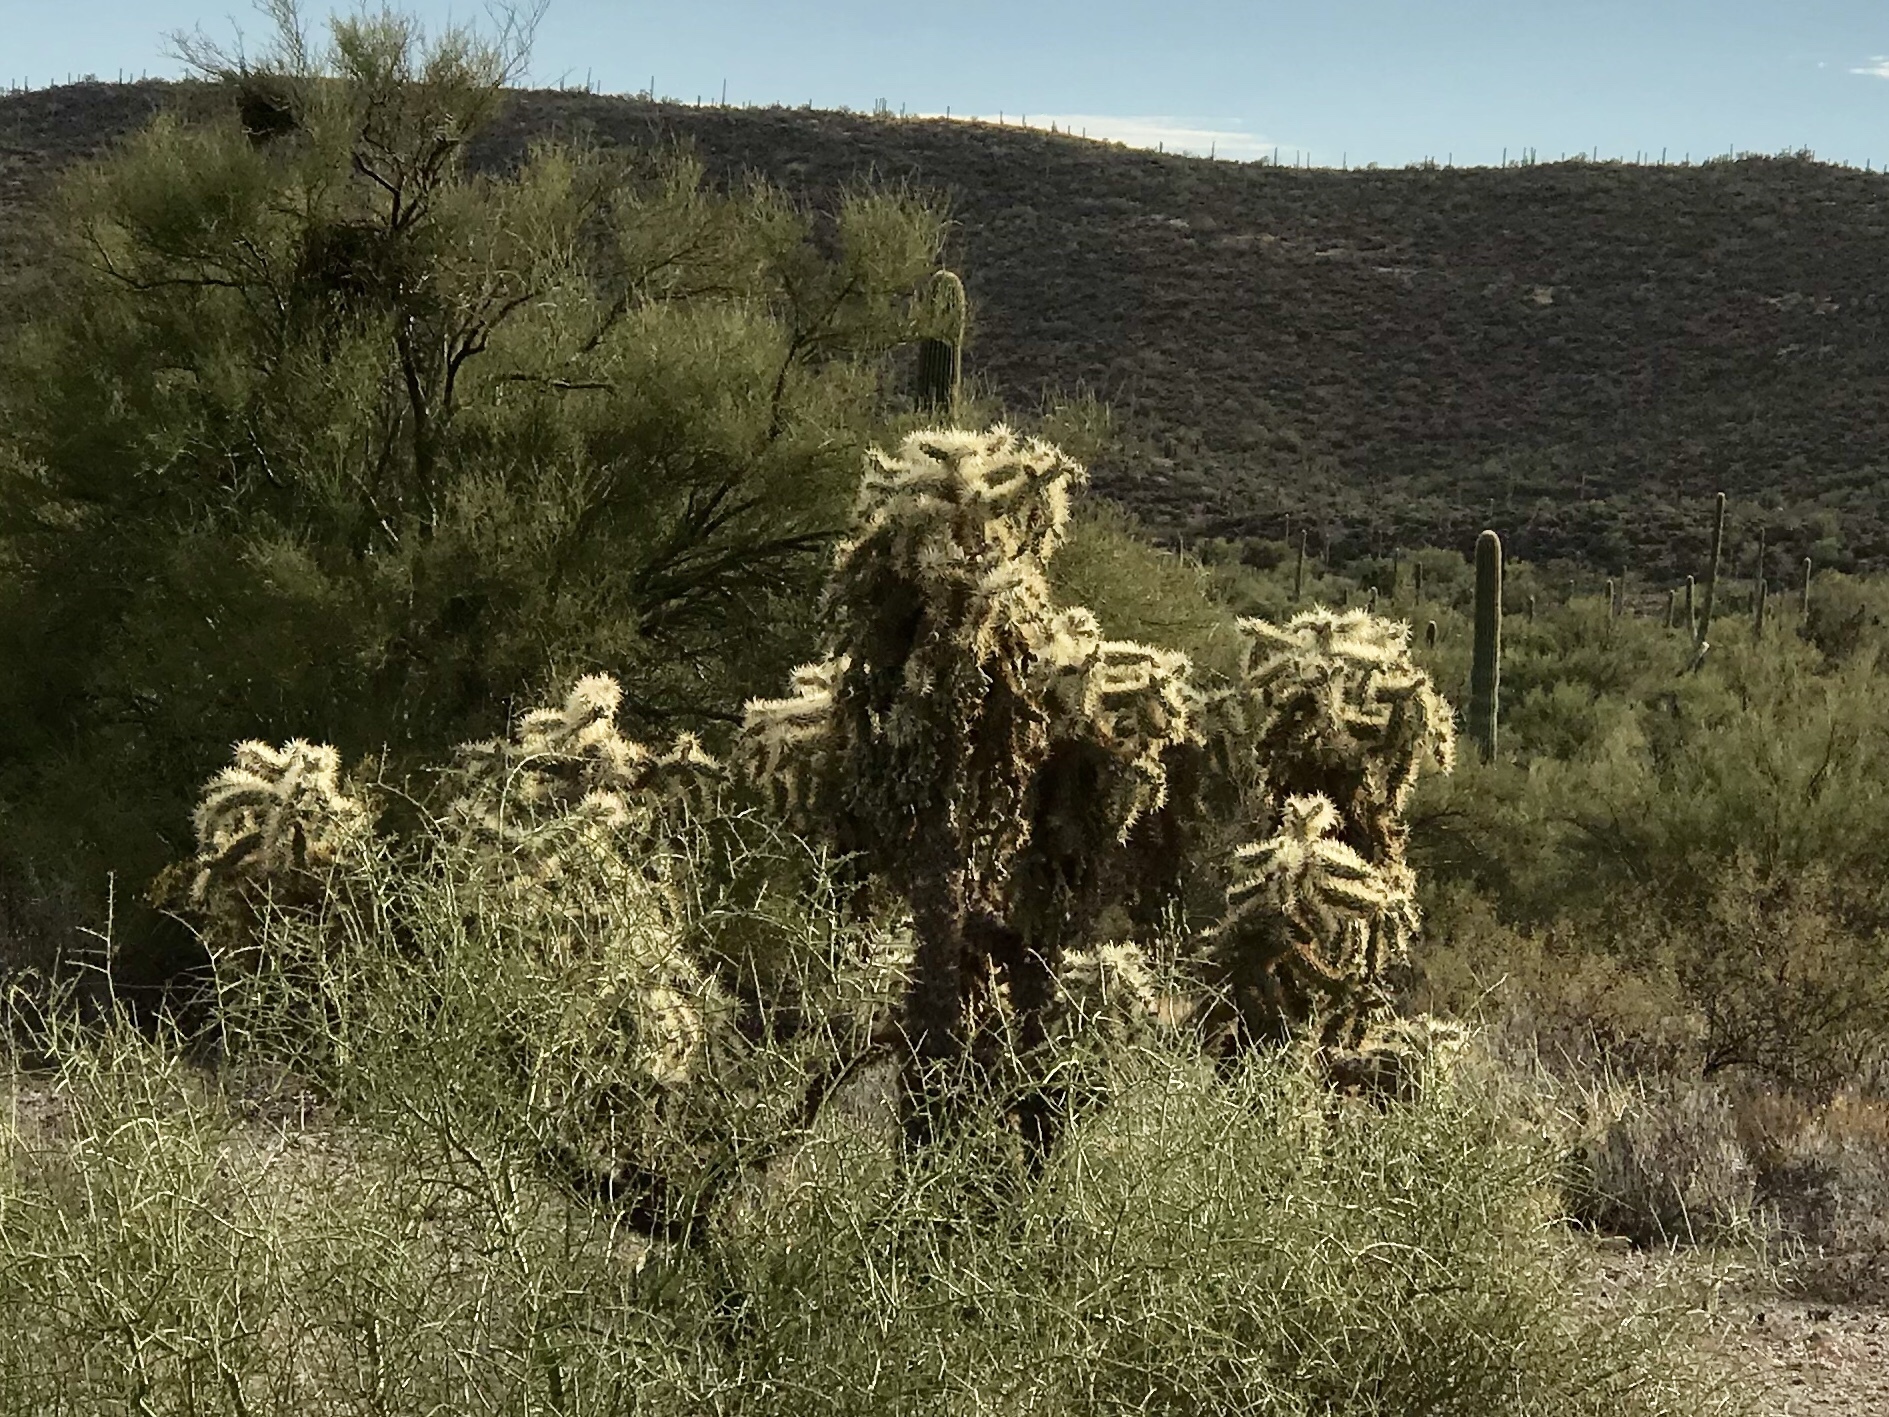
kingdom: Plantae
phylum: Tracheophyta
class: Magnoliopsida
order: Caryophyllales
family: Cactaceae
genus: Cylindropuntia
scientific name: Cylindropuntia fulgida
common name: Jumping cholla
